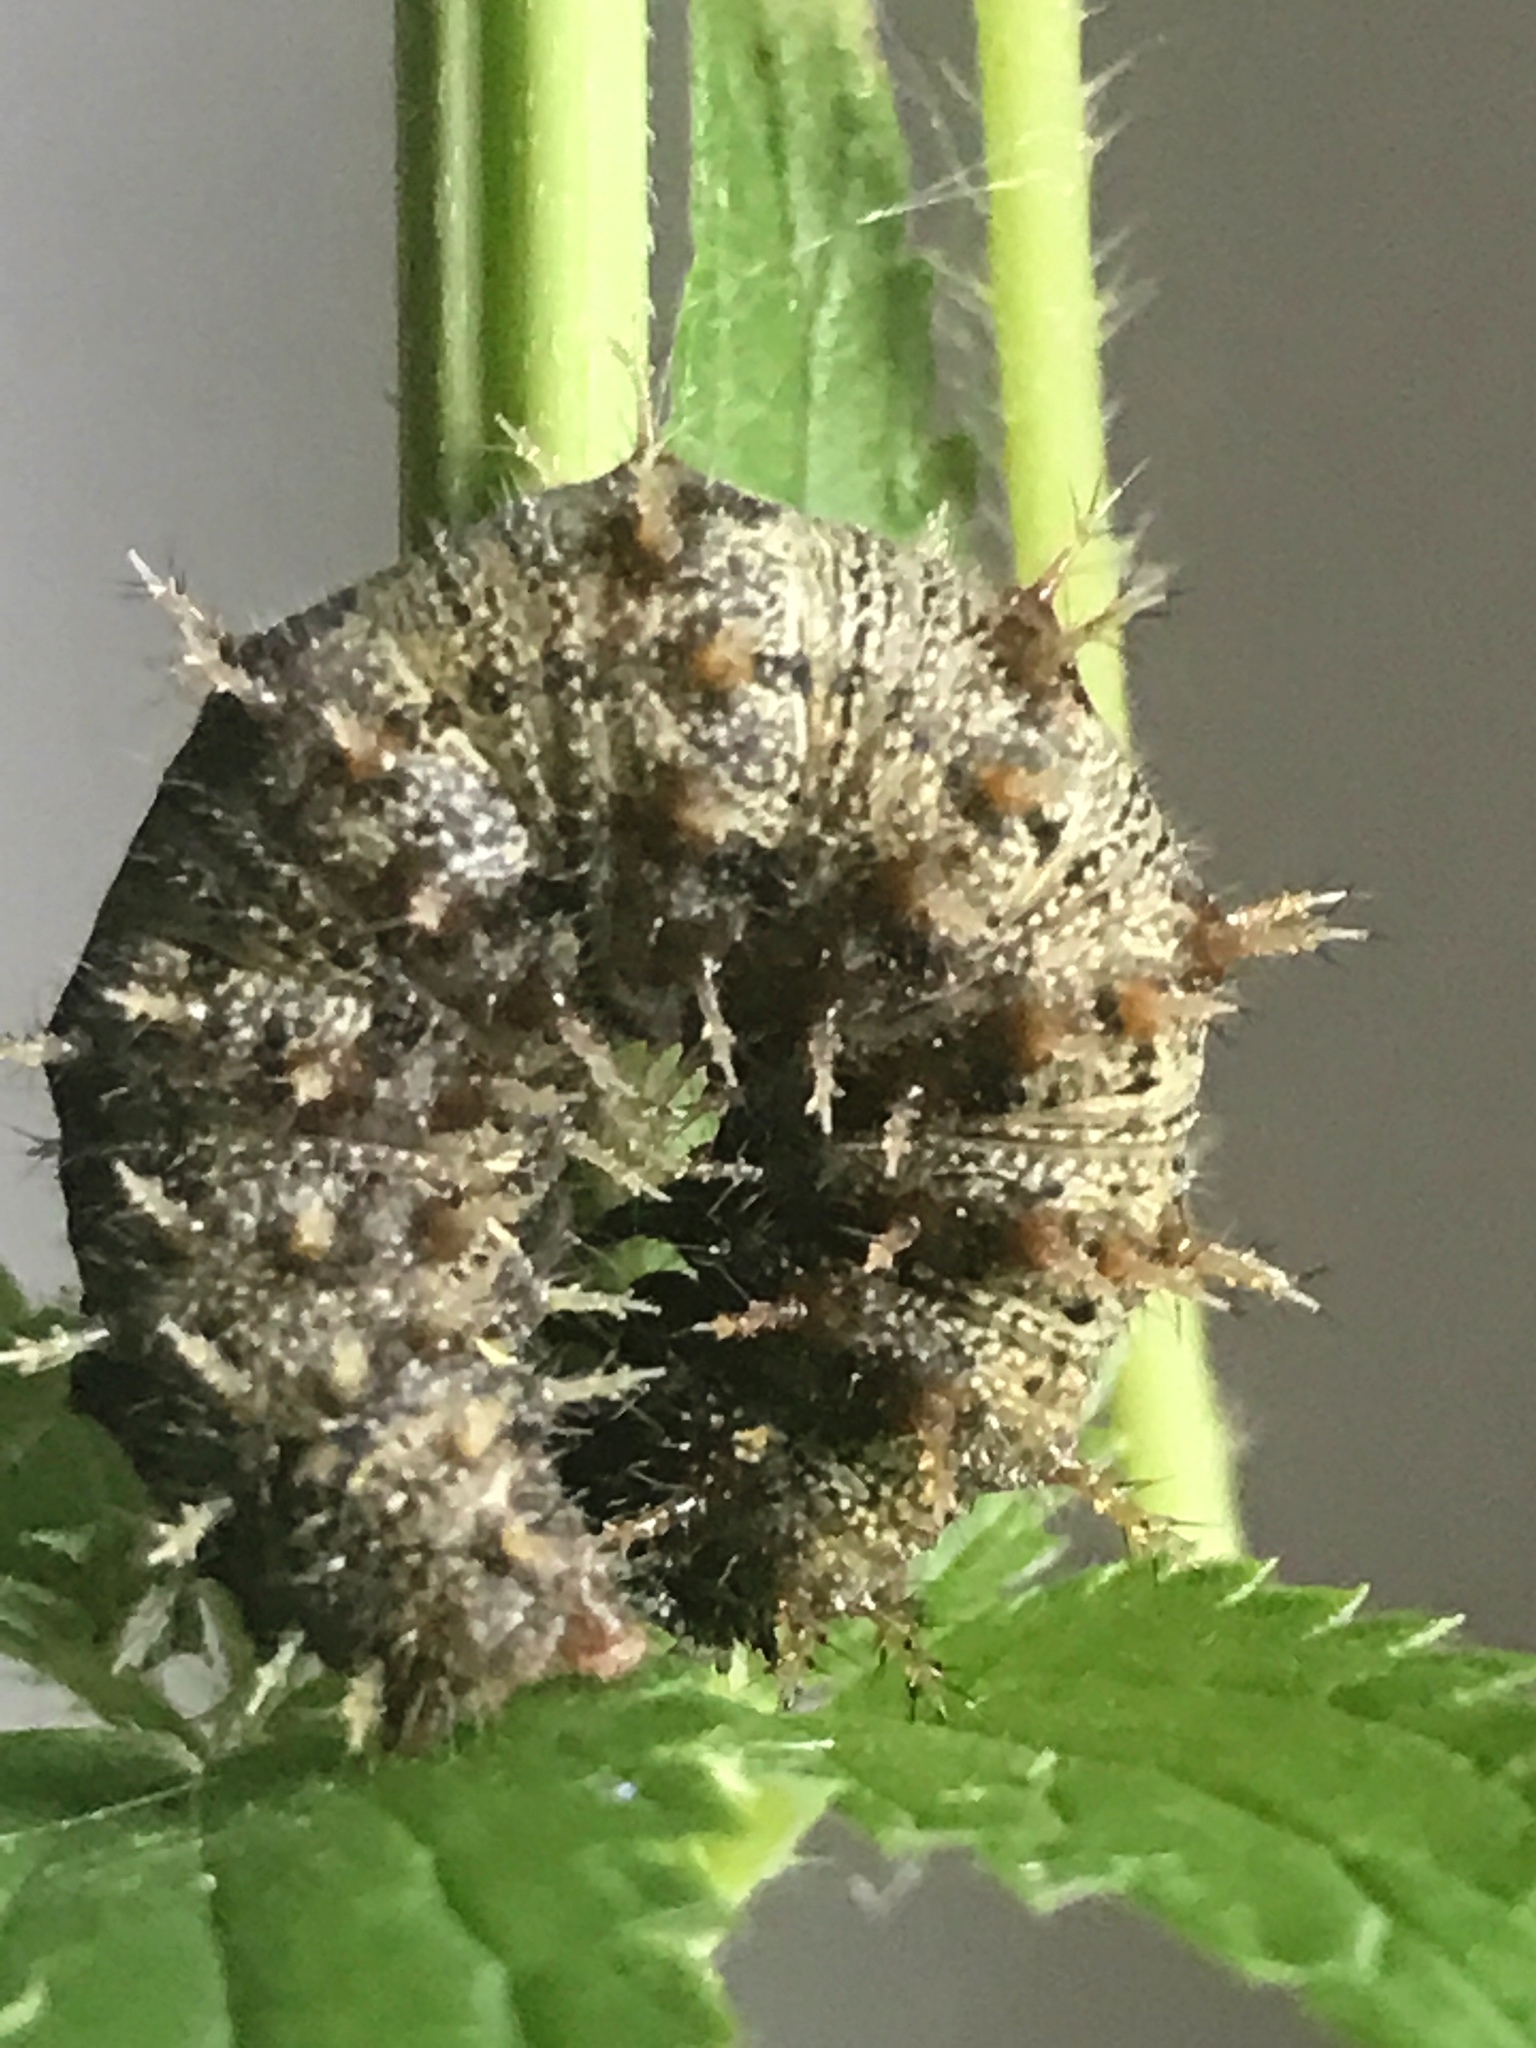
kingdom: Animalia
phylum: Arthropoda
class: Insecta
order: Lepidoptera
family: Nymphalidae
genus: Vanessa
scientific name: Vanessa atalanta
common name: Red admiral
